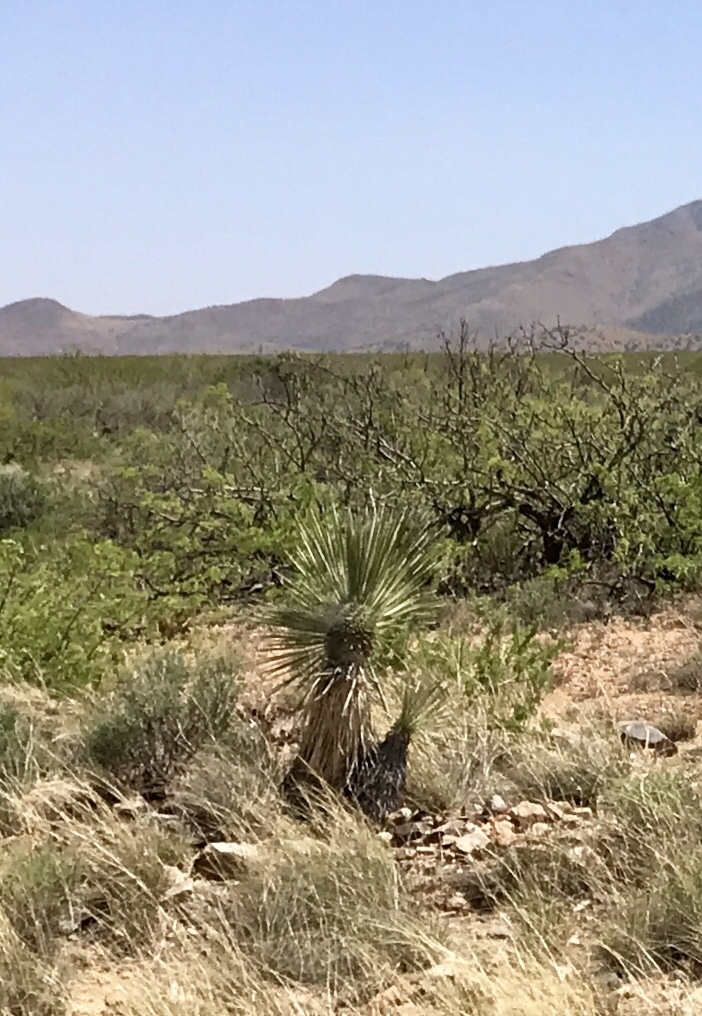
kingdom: Plantae
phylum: Tracheophyta
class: Liliopsida
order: Asparagales
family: Asparagaceae
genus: Yucca
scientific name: Yucca elata
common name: Palmella
